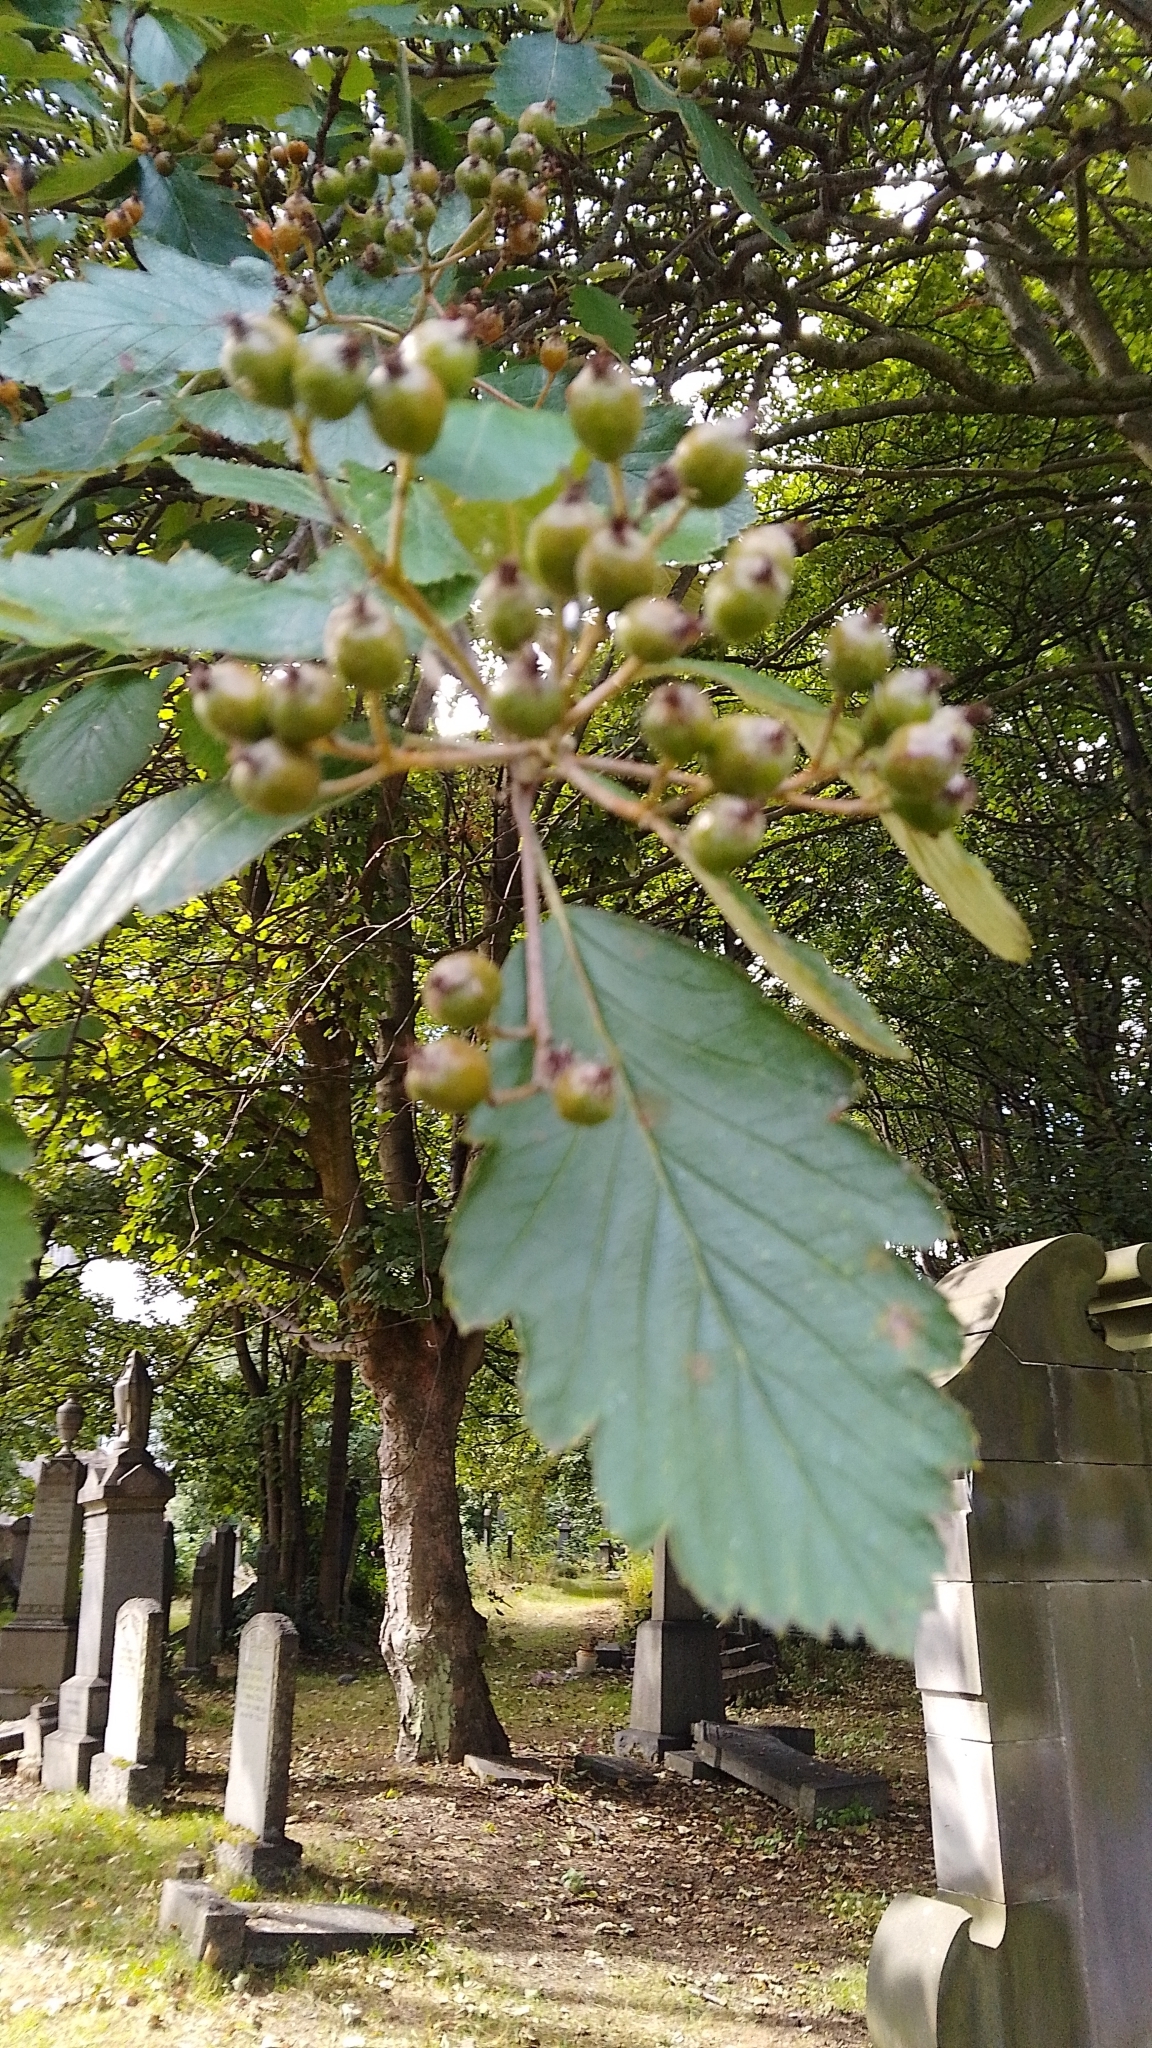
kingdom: Plantae
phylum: Tracheophyta
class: Magnoliopsida
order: Rosales
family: Rosaceae
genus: Scandosorbus
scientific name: Scandosorbus intermedia
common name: Swedish whitebeam
